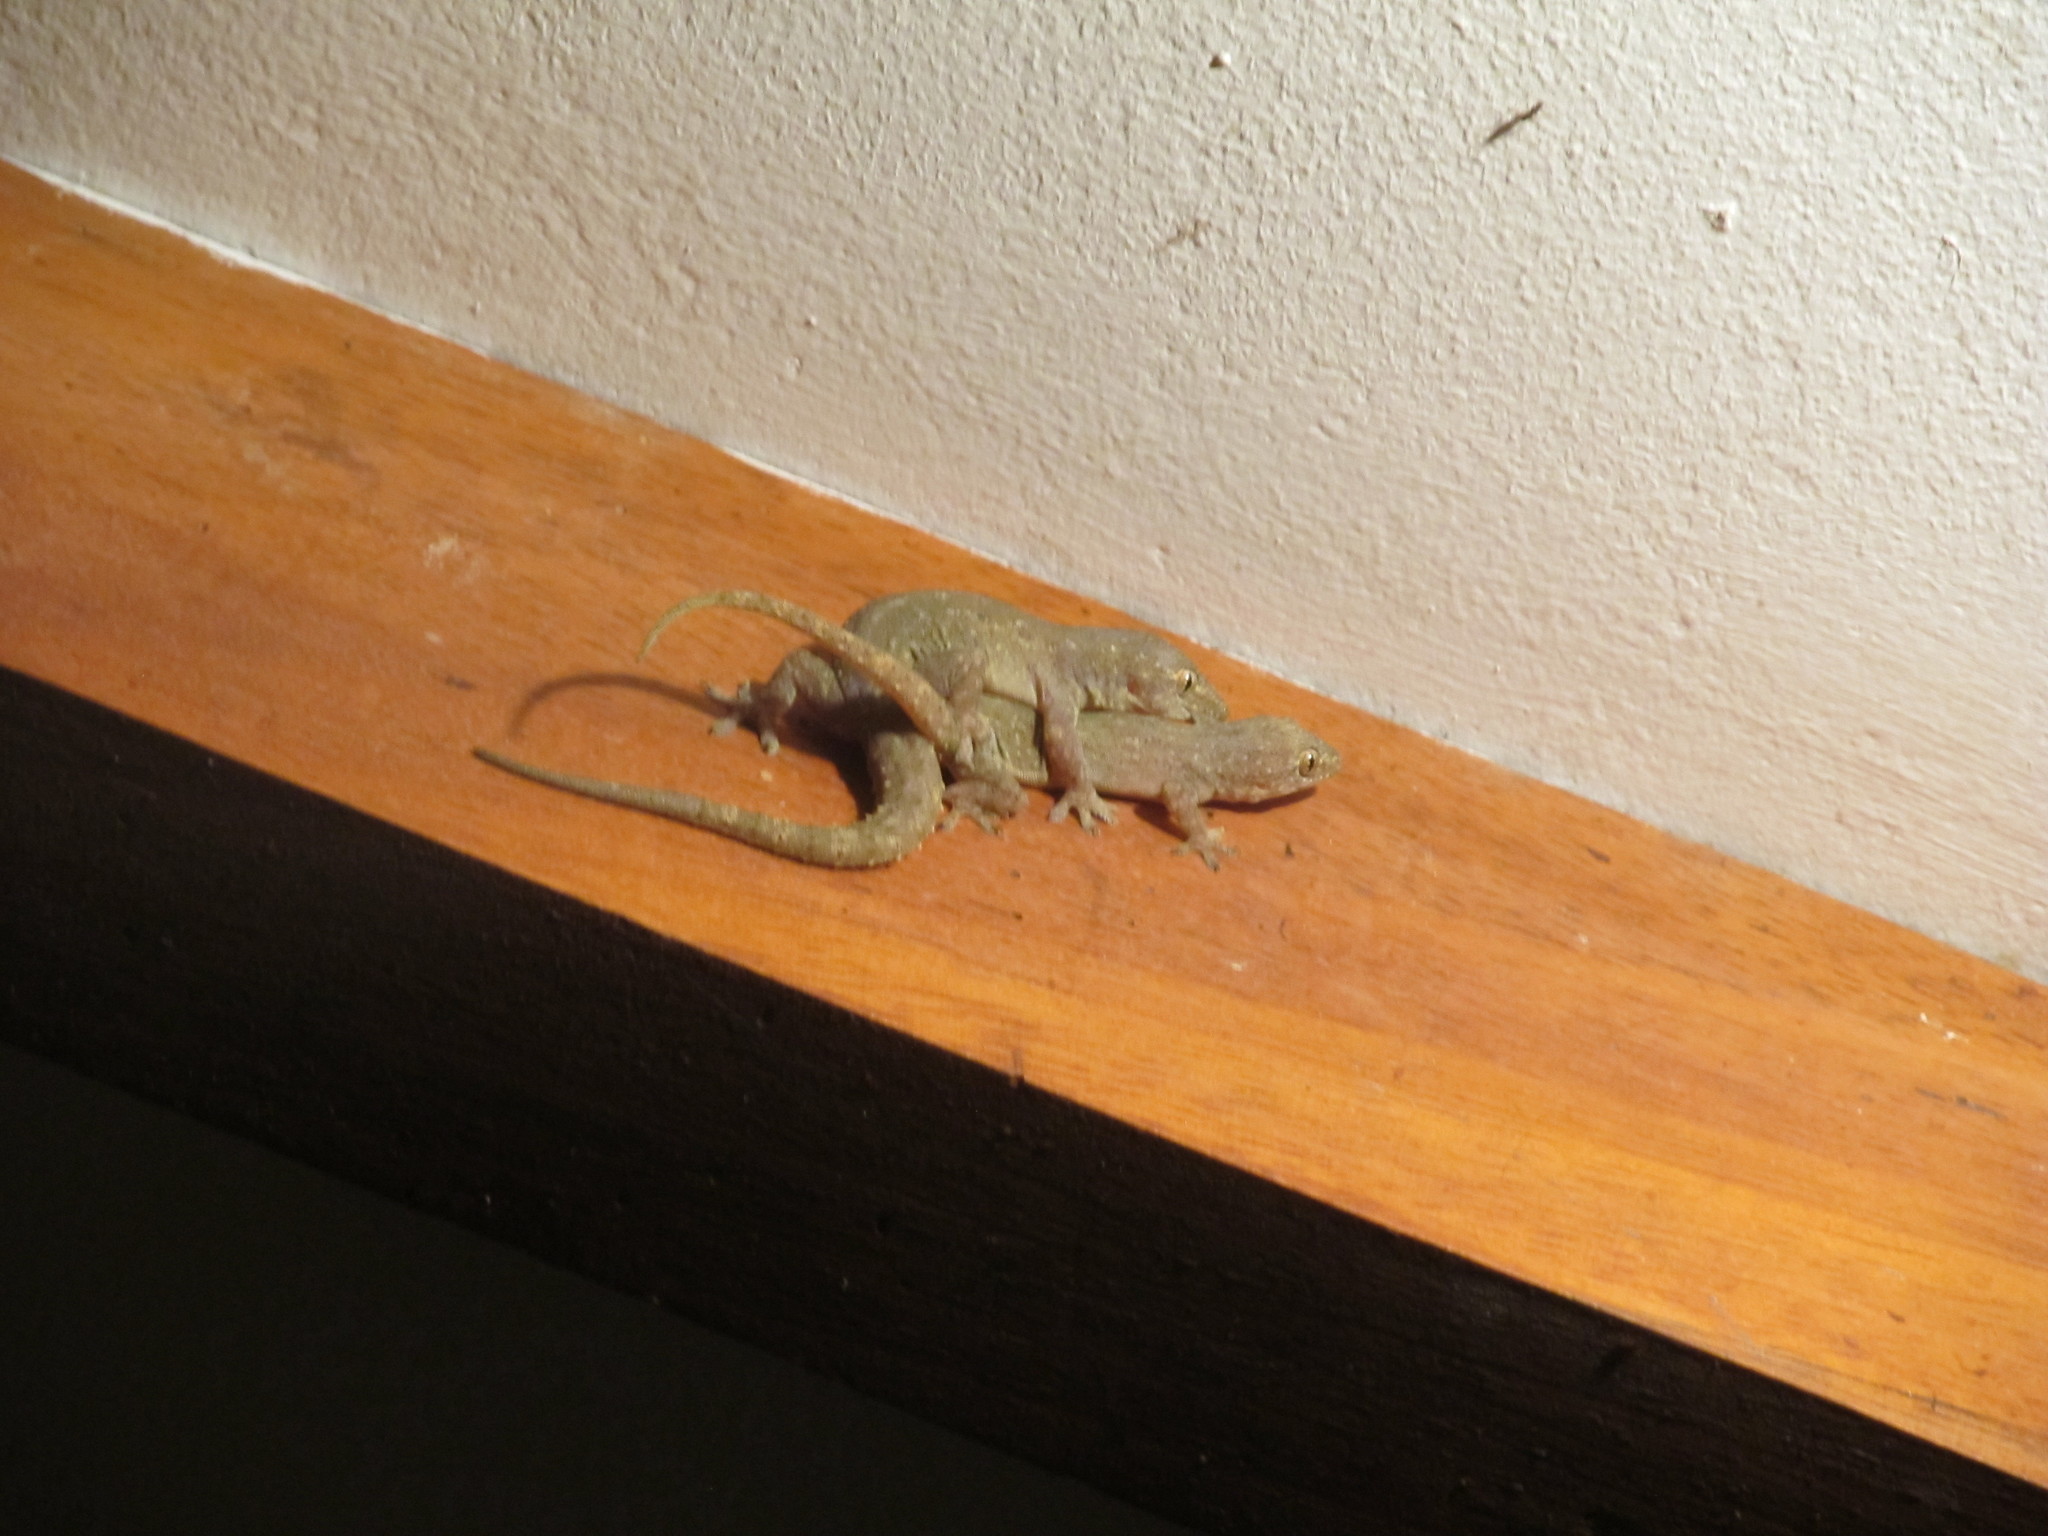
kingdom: Animalia
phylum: Chordata
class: Squamata
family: Gekkonidae
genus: Hemidactylus
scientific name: Hemidactylus frenatus
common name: Common house gecko
